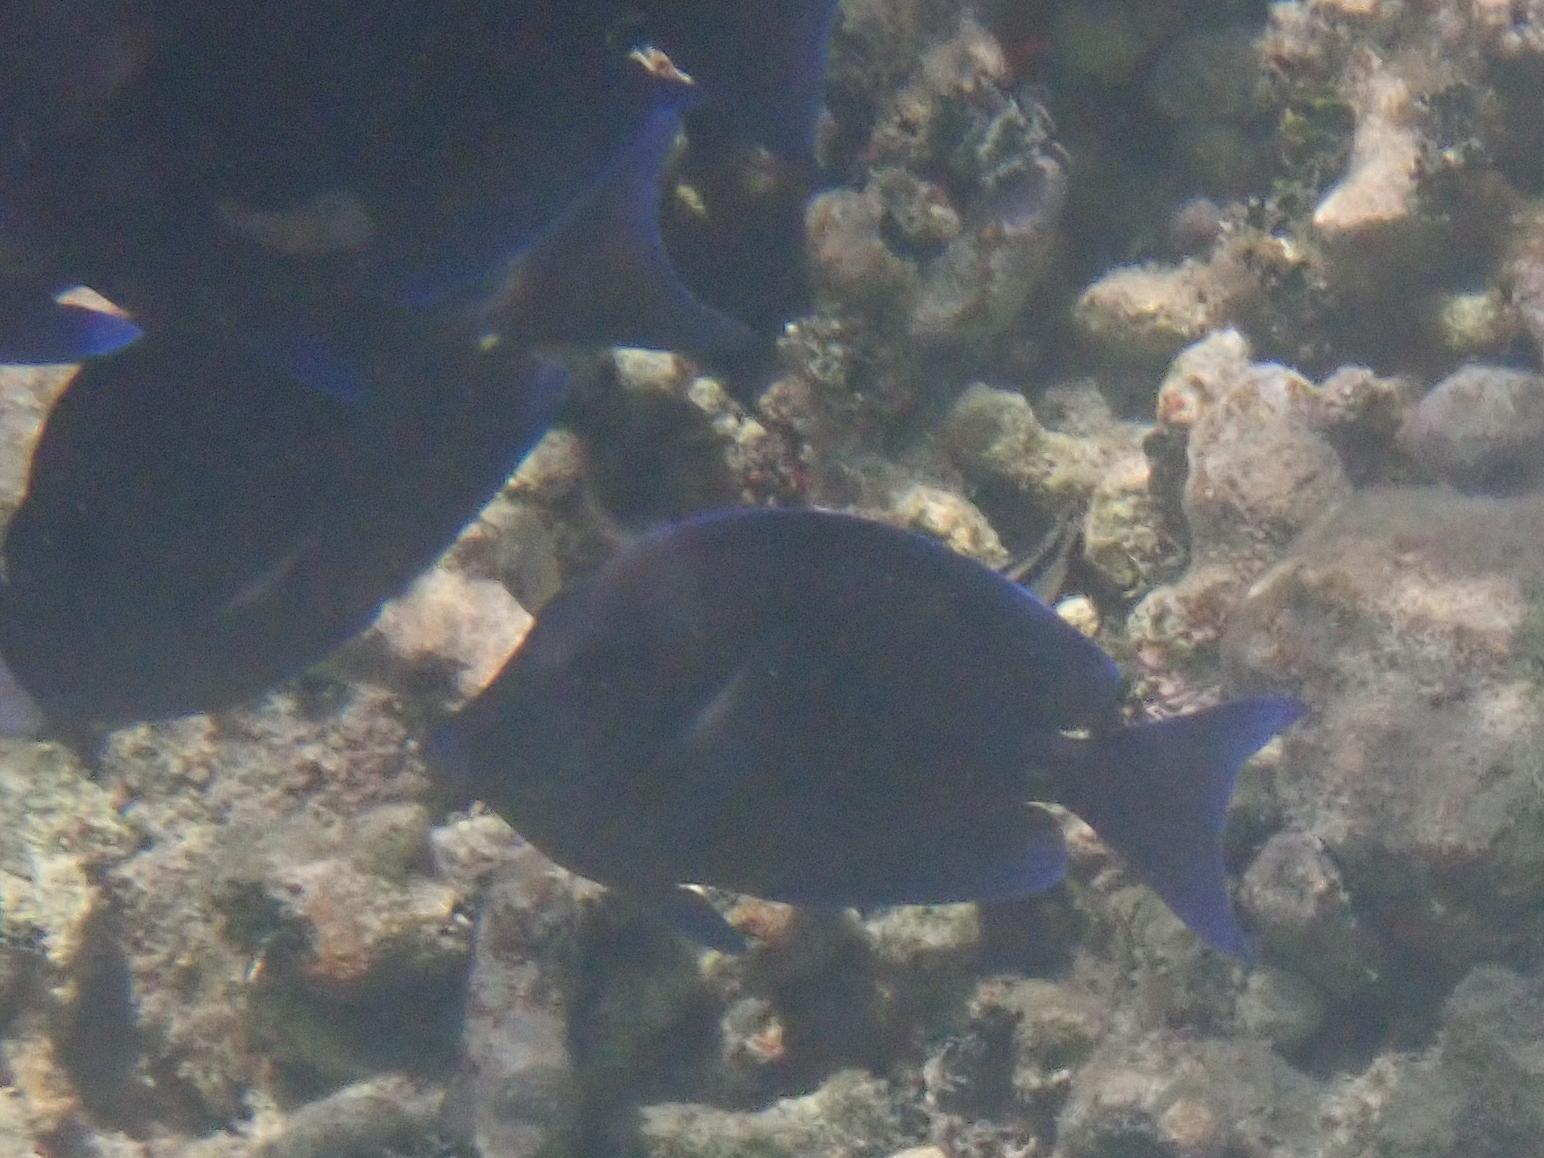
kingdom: Animalia
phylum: Chordata
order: Perciformes
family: Acanthuridae
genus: Acanthurus
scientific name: Acanthurus coeruleus
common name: Blue tang
